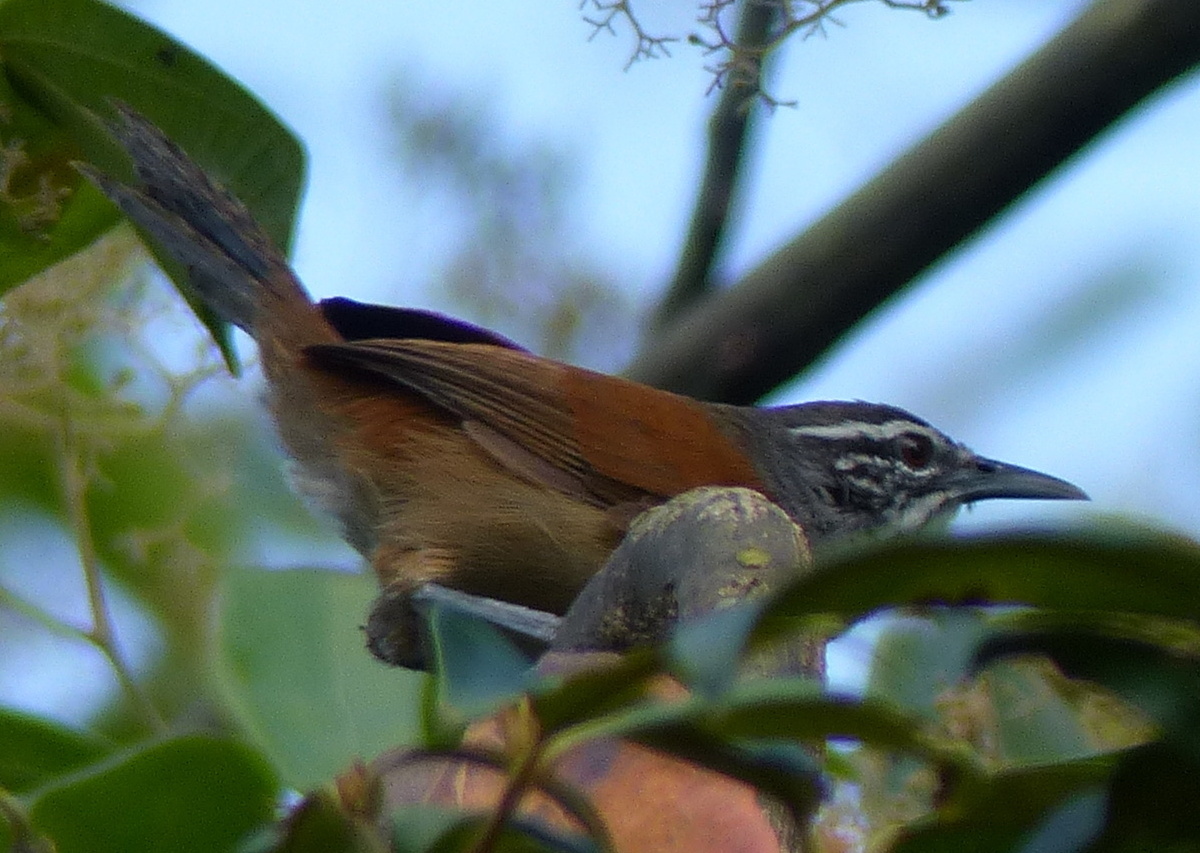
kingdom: Animalia
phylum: Chordata
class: Aves
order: Passeriformes
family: Troglodytidae
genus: Pheugopedius
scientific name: Pheugopedius genibarbis
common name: Moustached wren
